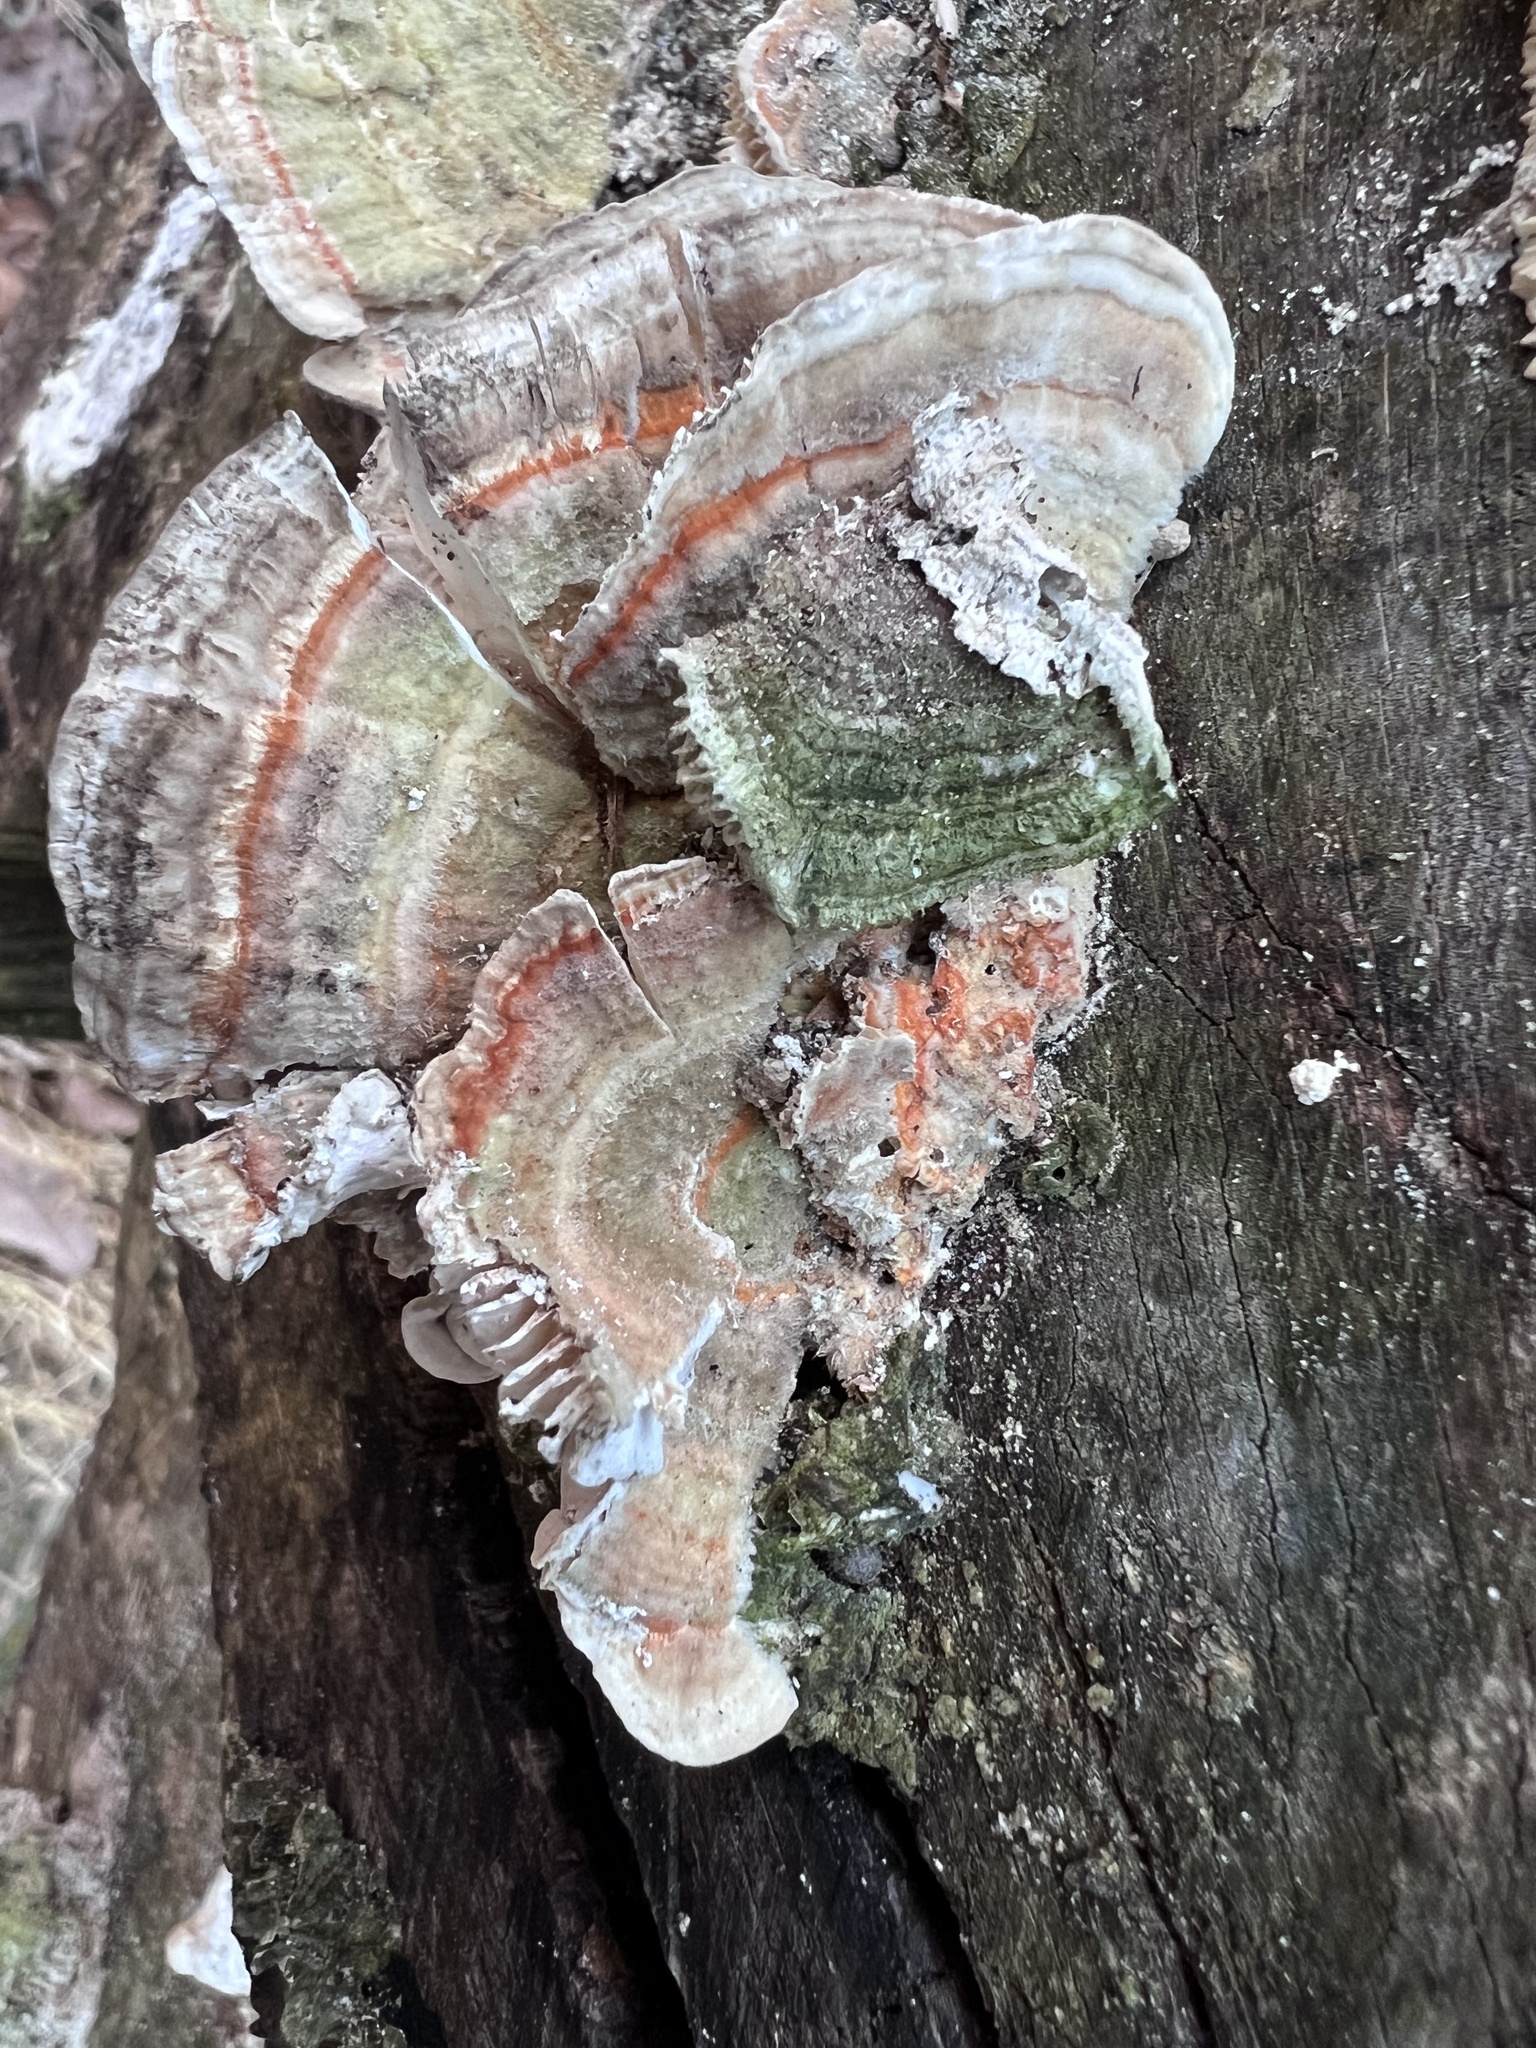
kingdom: Fungi
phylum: Basidiomycota
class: Agaricomycetes
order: Polyporales
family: Polyporaceae
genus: Lenzites
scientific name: Lenzites betulinus
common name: Birch mazegill
